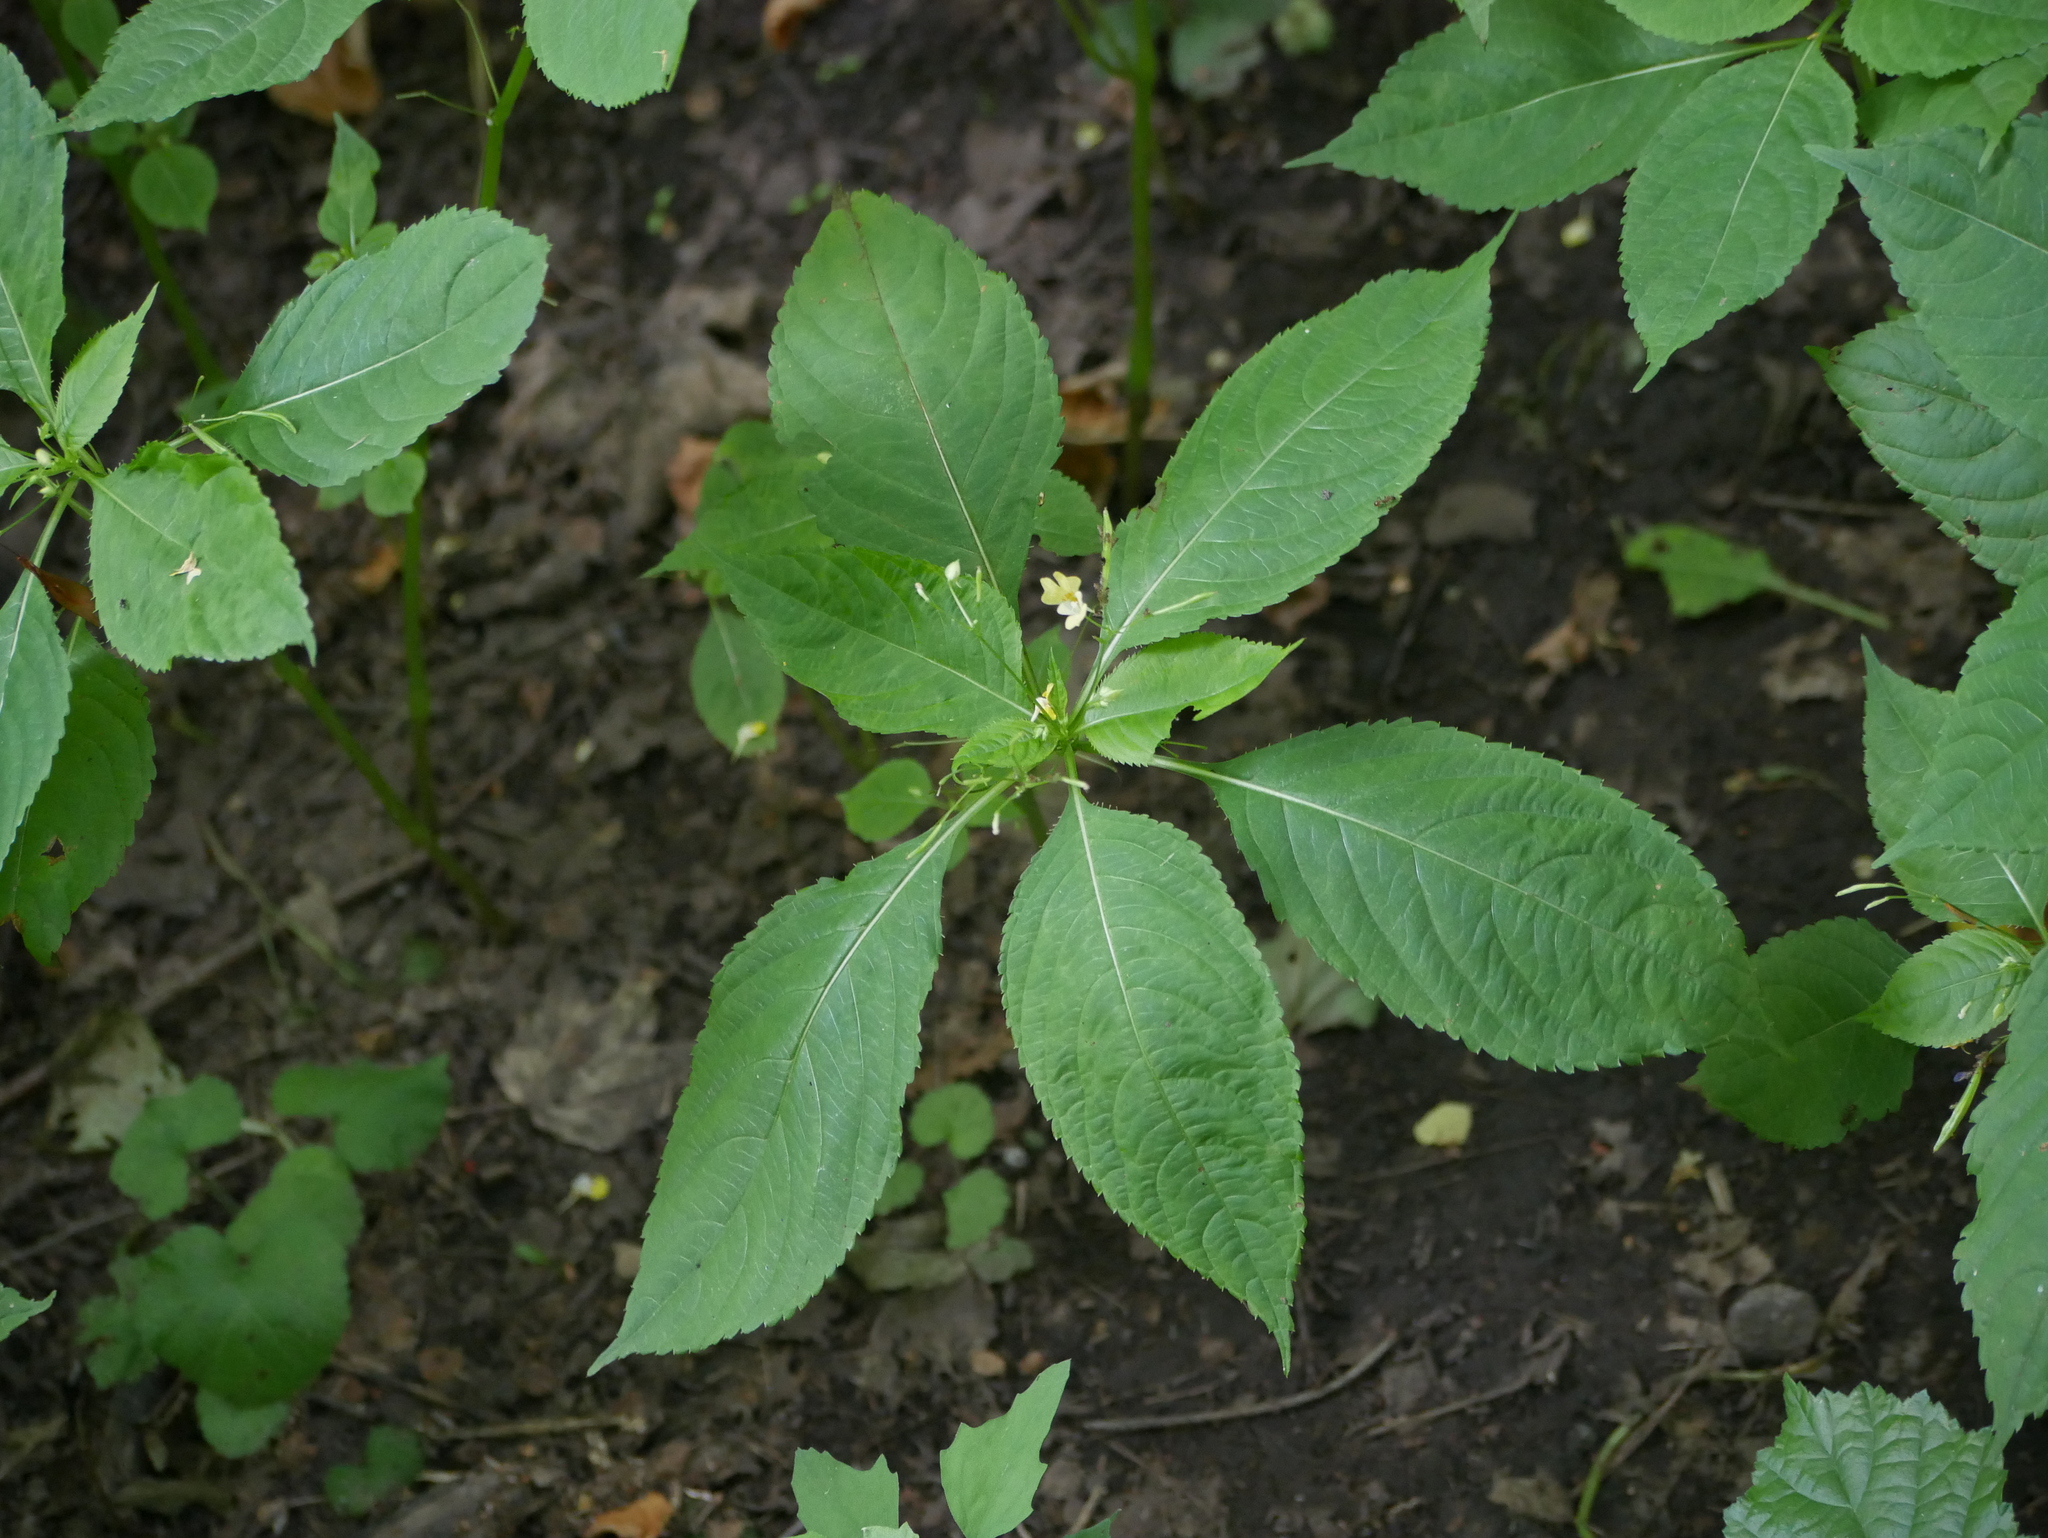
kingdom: Plantae
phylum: Tracheophyta
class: Magnoliopsida
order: Ericales
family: Balsaminaceae
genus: Impatiens
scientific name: Impatiens parviflora
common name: Small balsam
